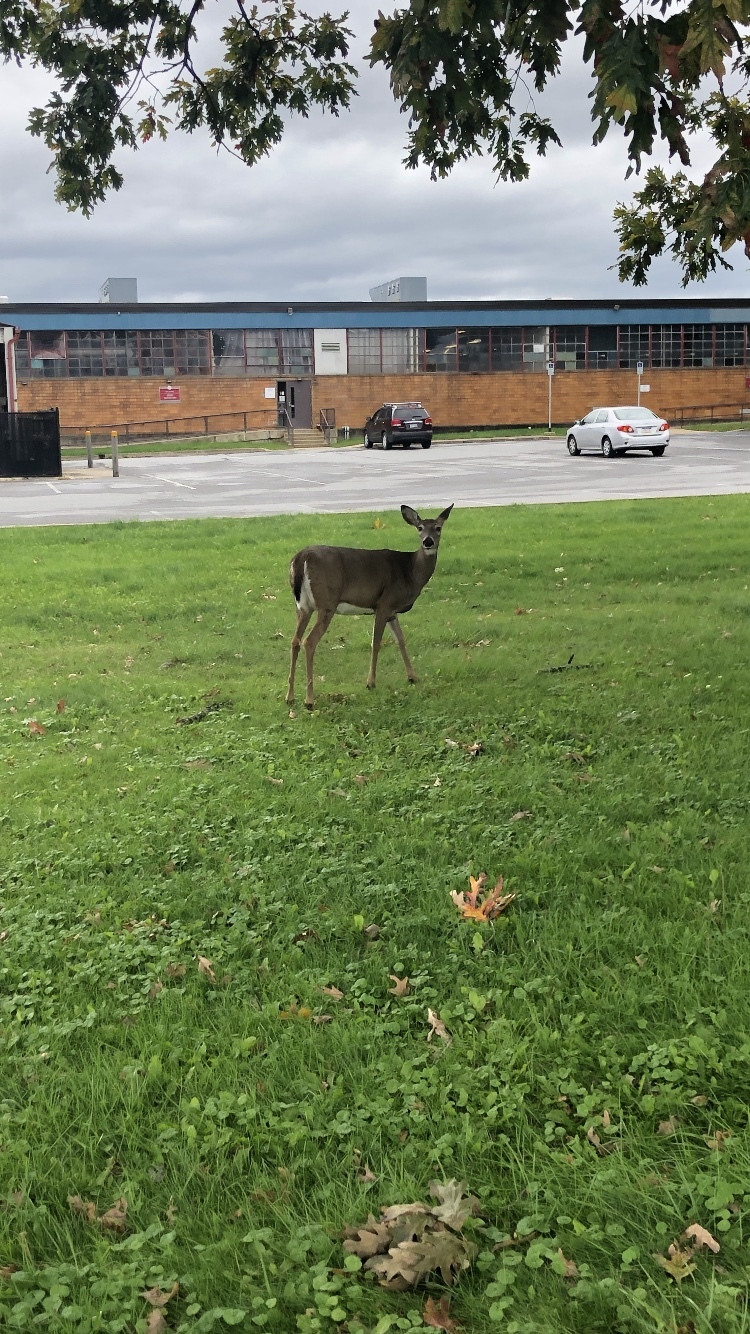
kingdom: Animalia
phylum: Chordata
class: Mammalia
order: Artiodactyla
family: Cervidae
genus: Odocoileus
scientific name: Odocoileus virginianus
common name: White-tailed deer
